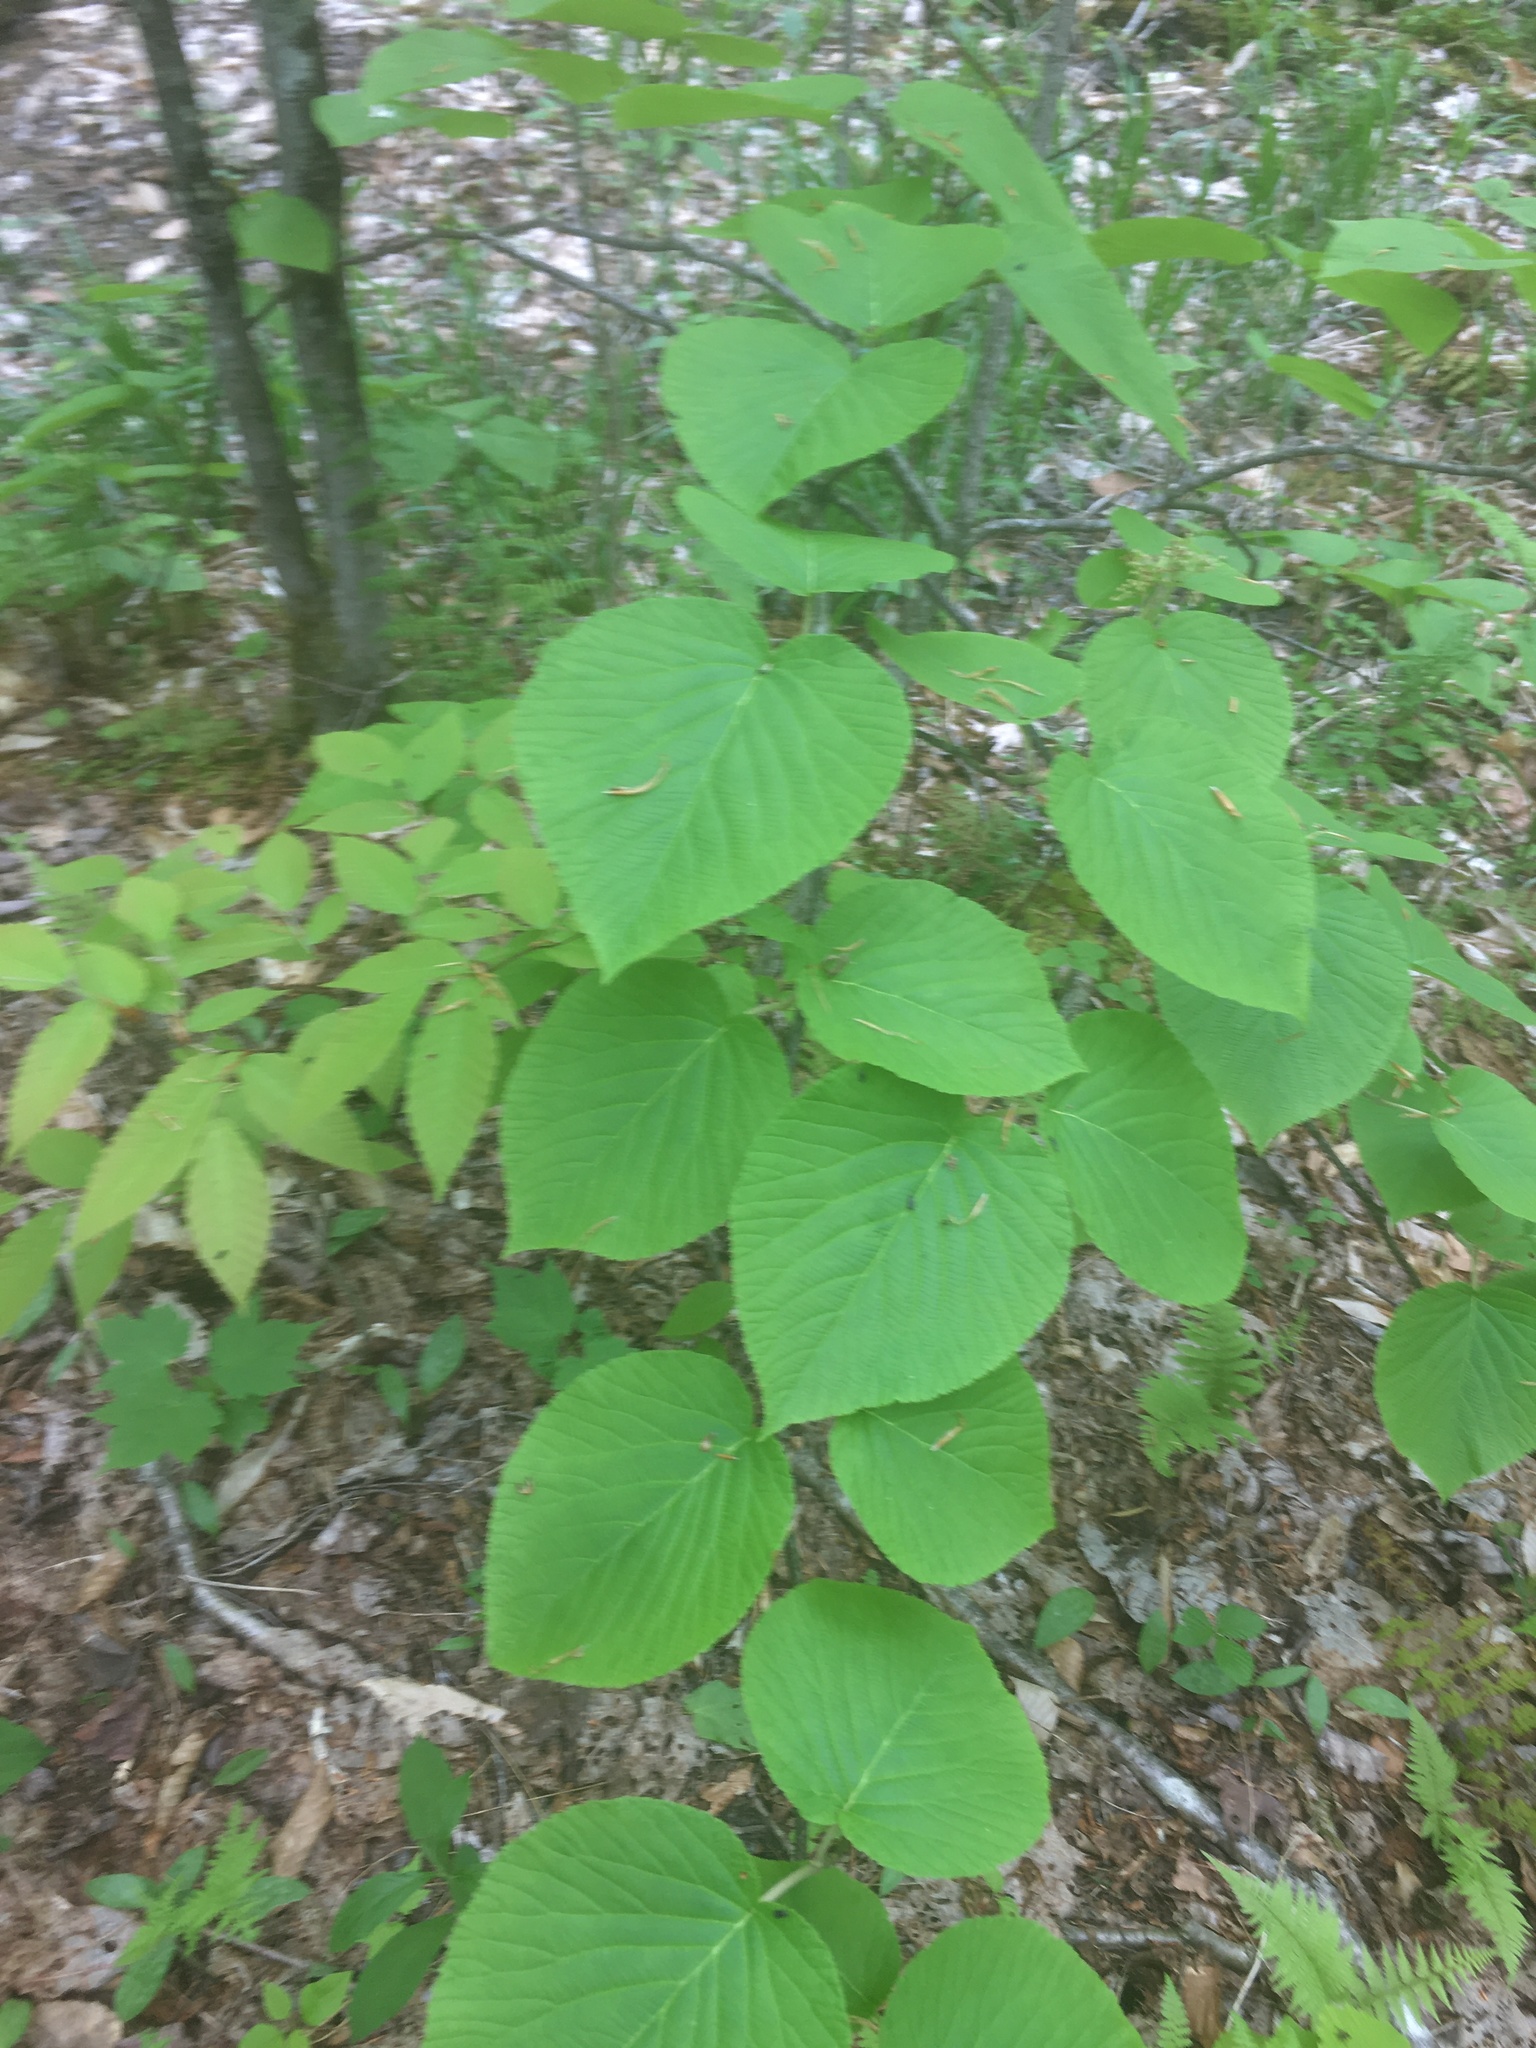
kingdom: Plantae
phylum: Tracheophyta
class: Magnoliopsida
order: Dipsacales
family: Viburnaceae
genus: Viburnum
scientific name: Viburnum lantanoides
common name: Hobblebush
